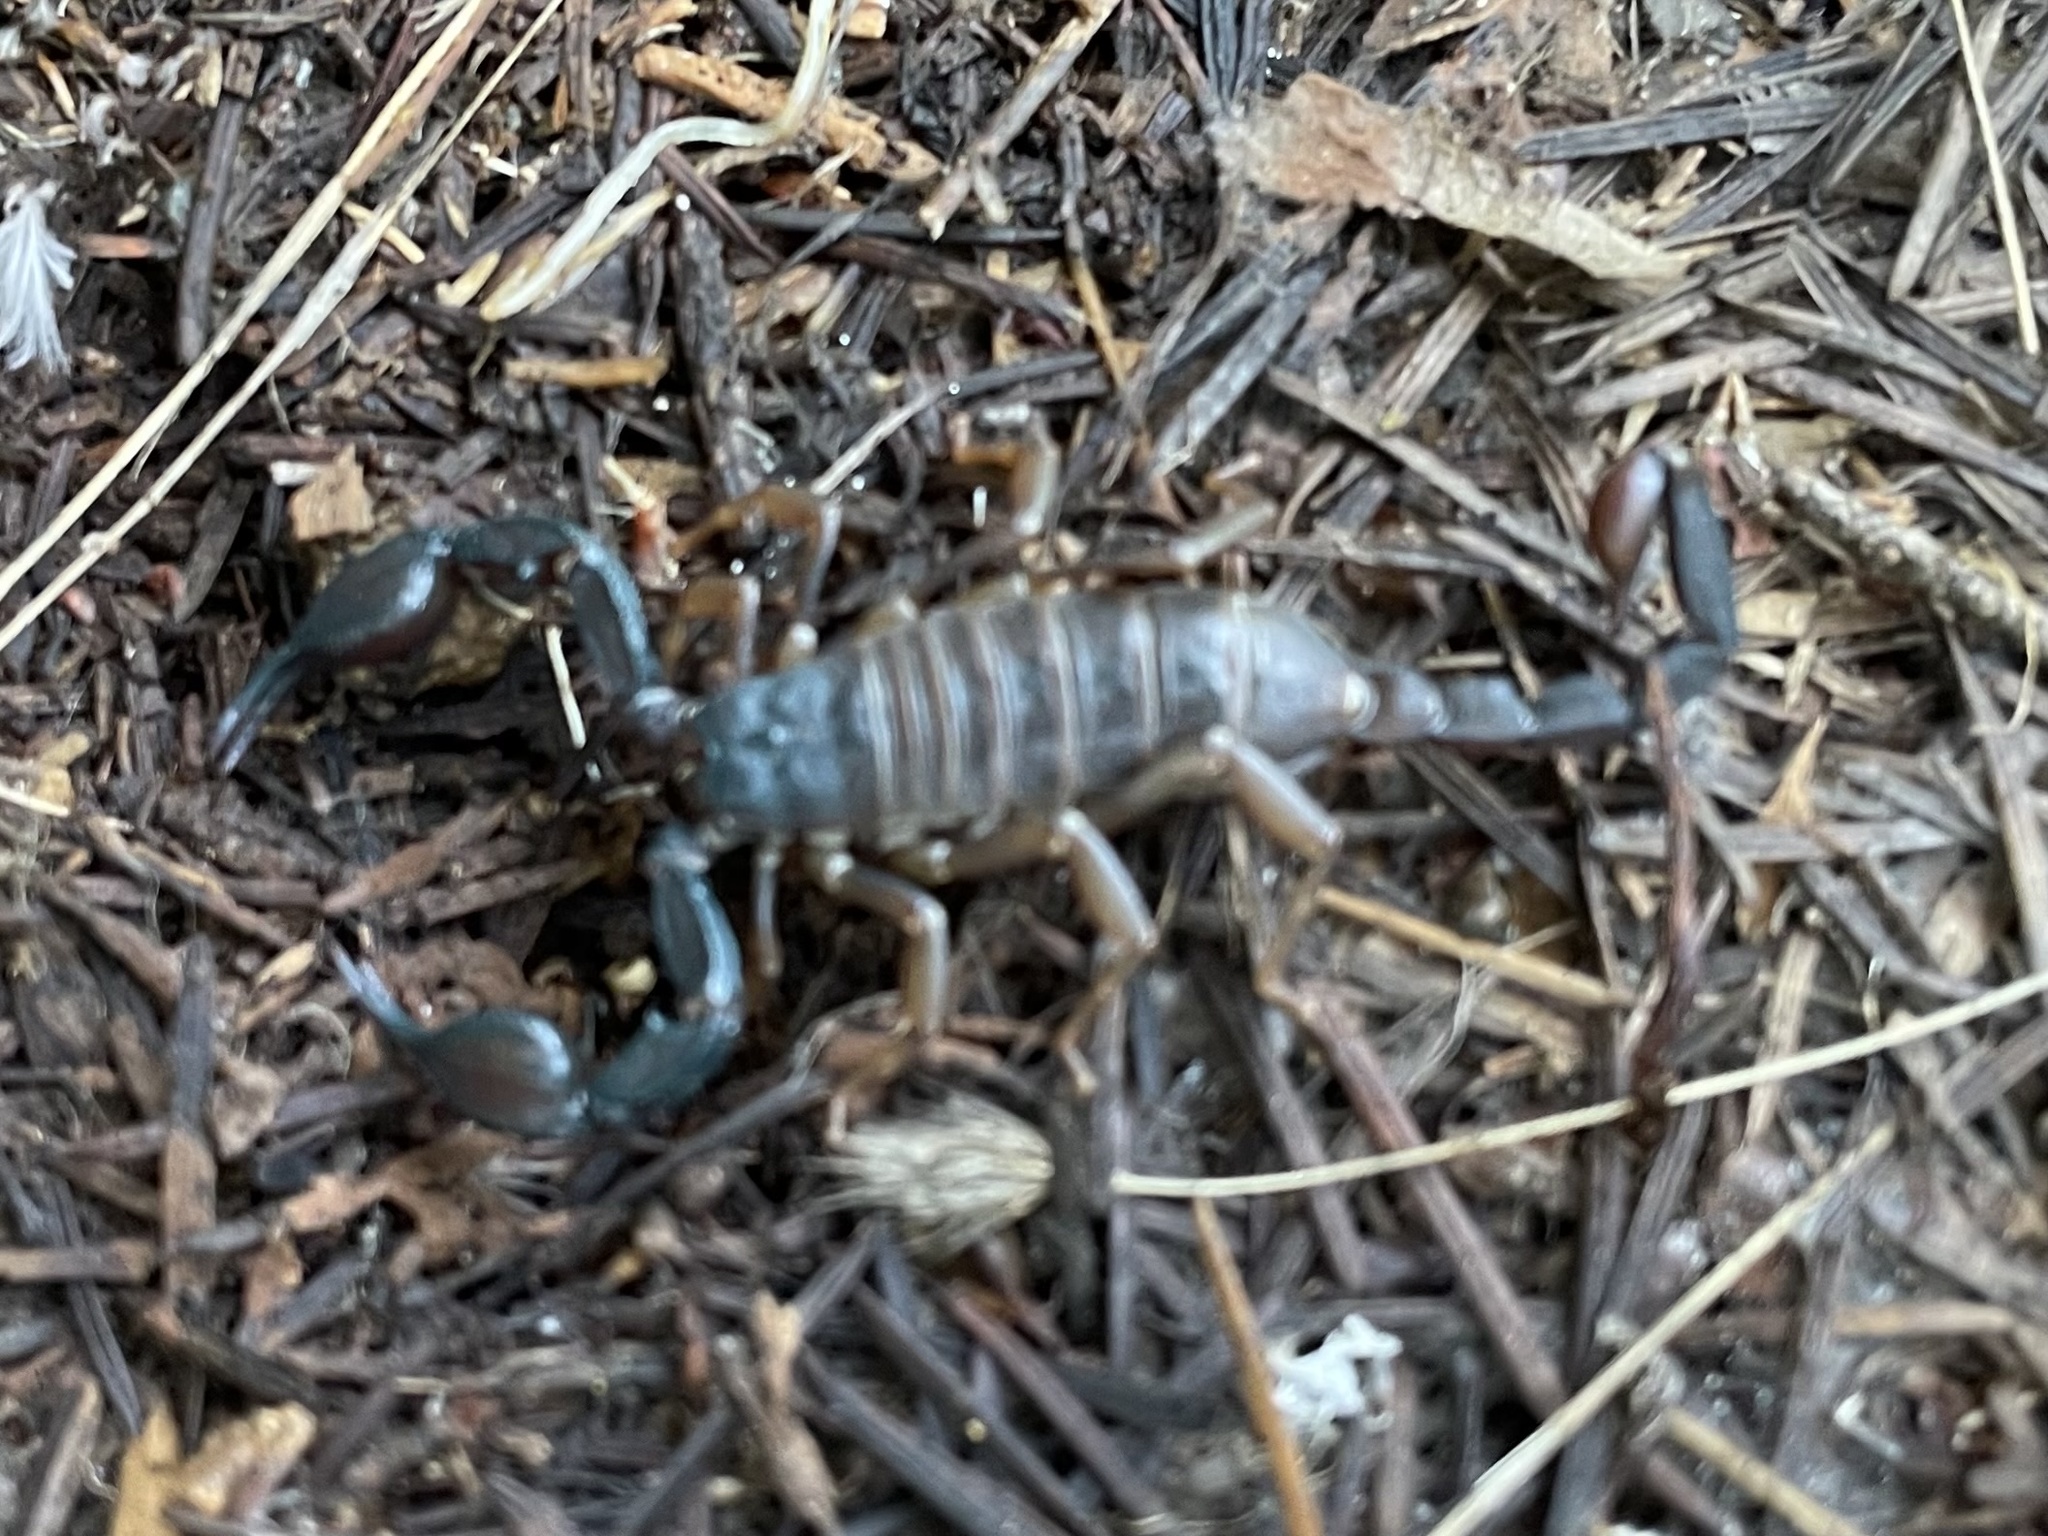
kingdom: Animalia
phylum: Arthropoda
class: Arachnida
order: Scorpiones
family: Chactidae
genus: Uroctonus
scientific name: Uroctonus mordax
